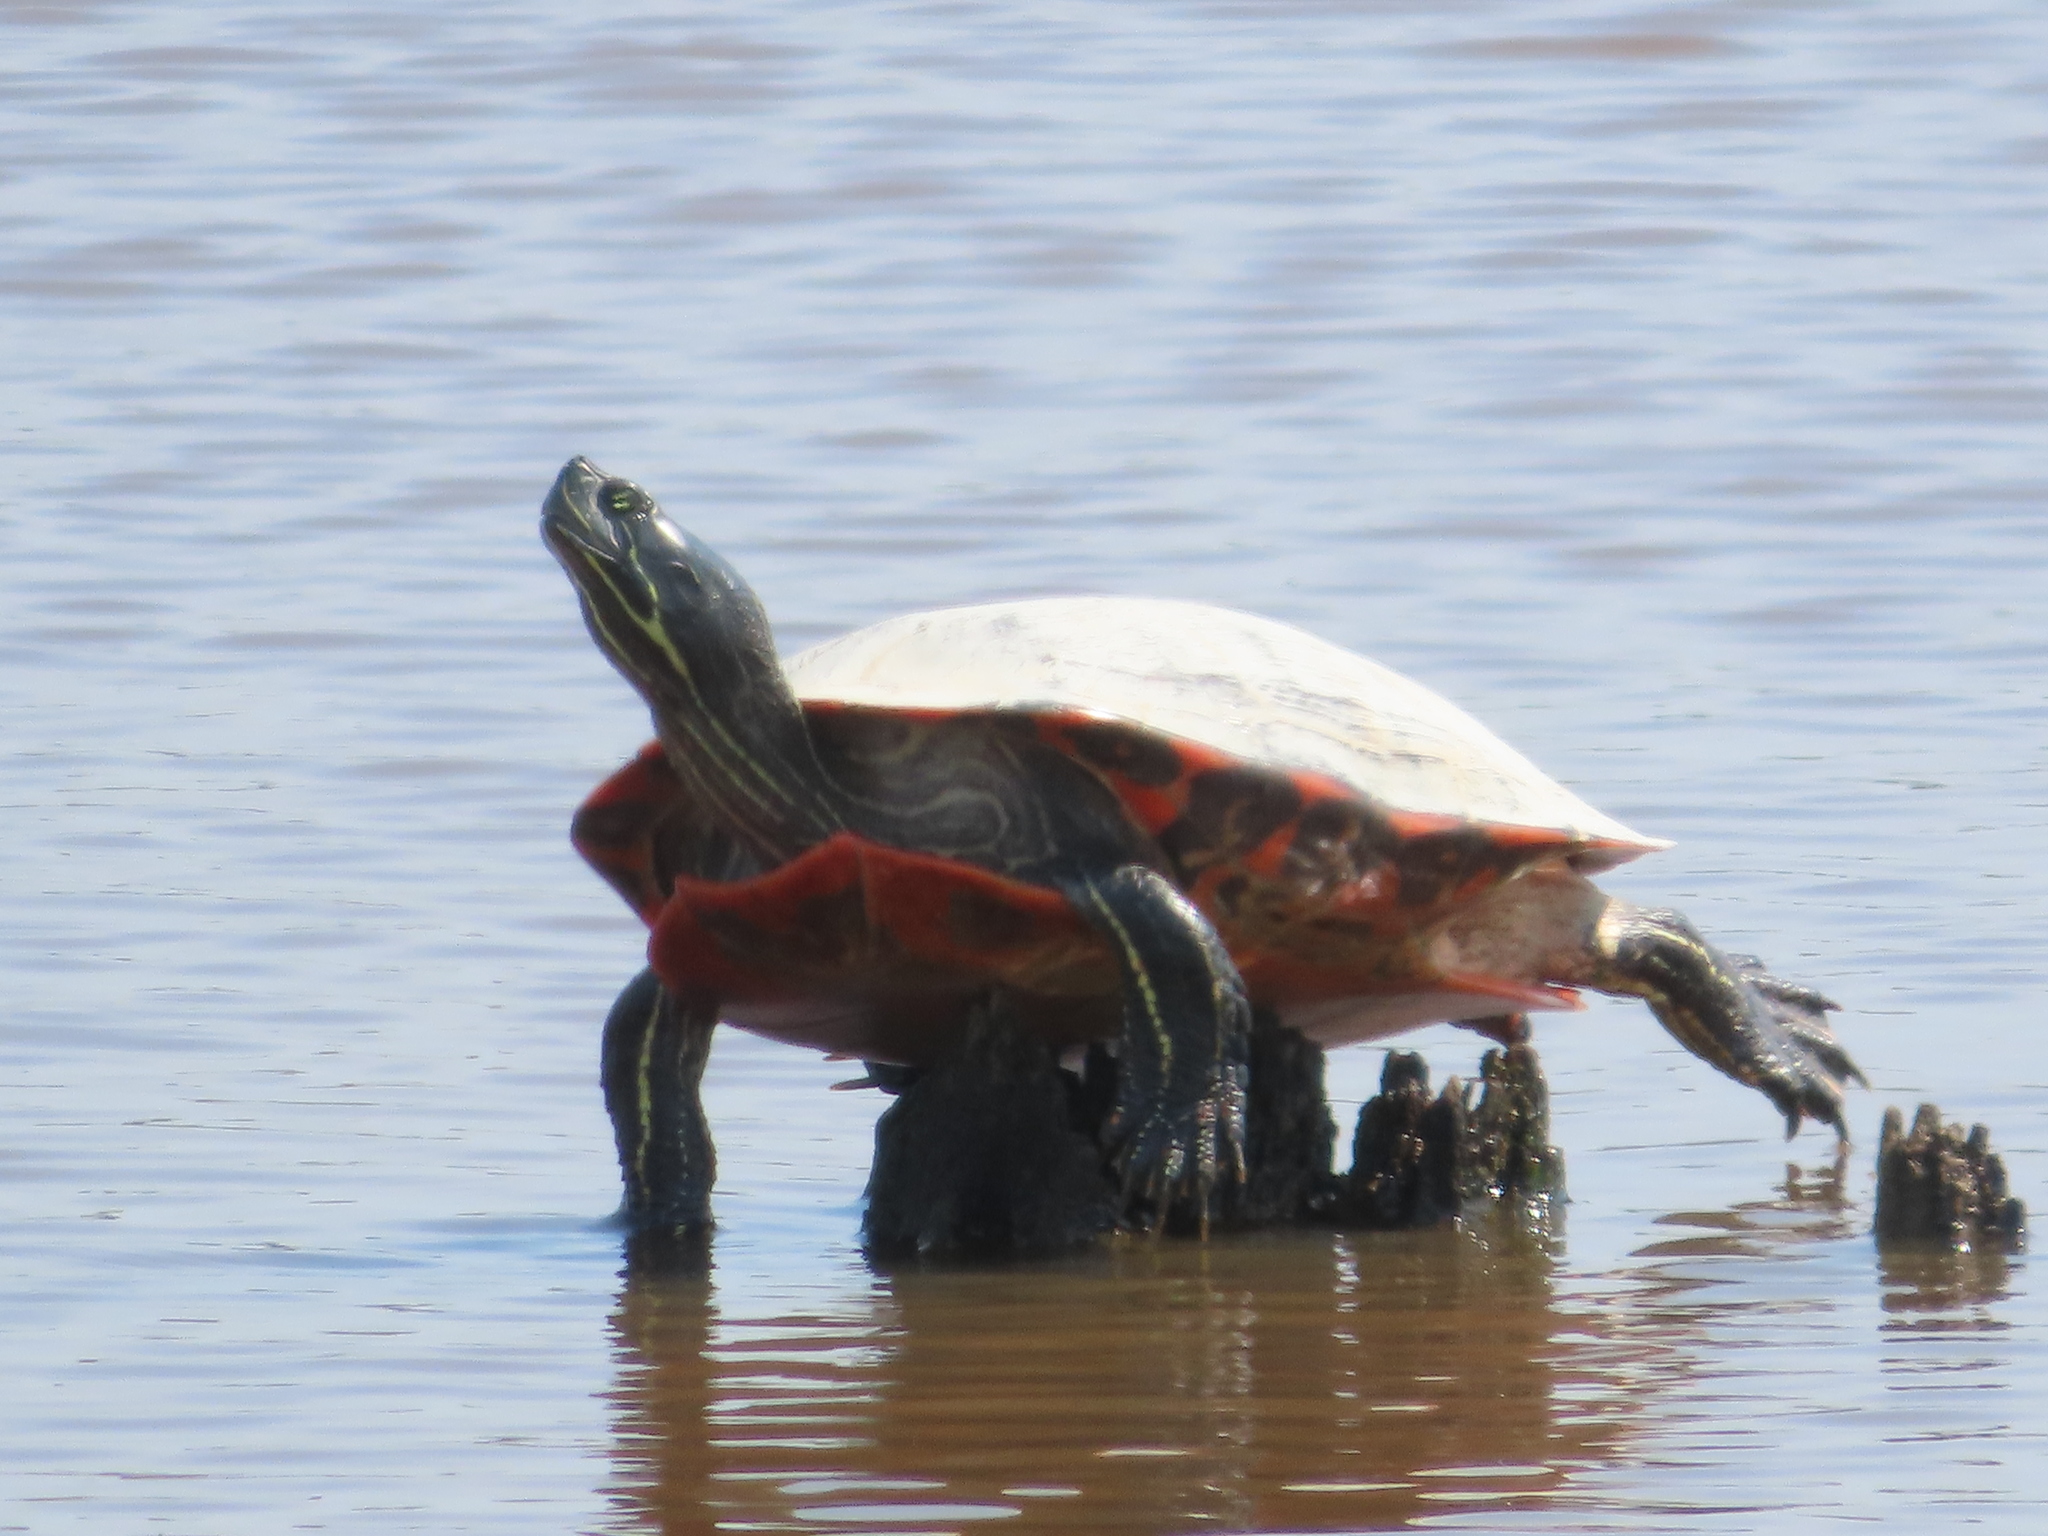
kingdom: Animalia
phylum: Chordata
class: Testudines
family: Emydidae
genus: Pseudemys
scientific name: Pseudemys rubriventris
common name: American red-bellied turtle
